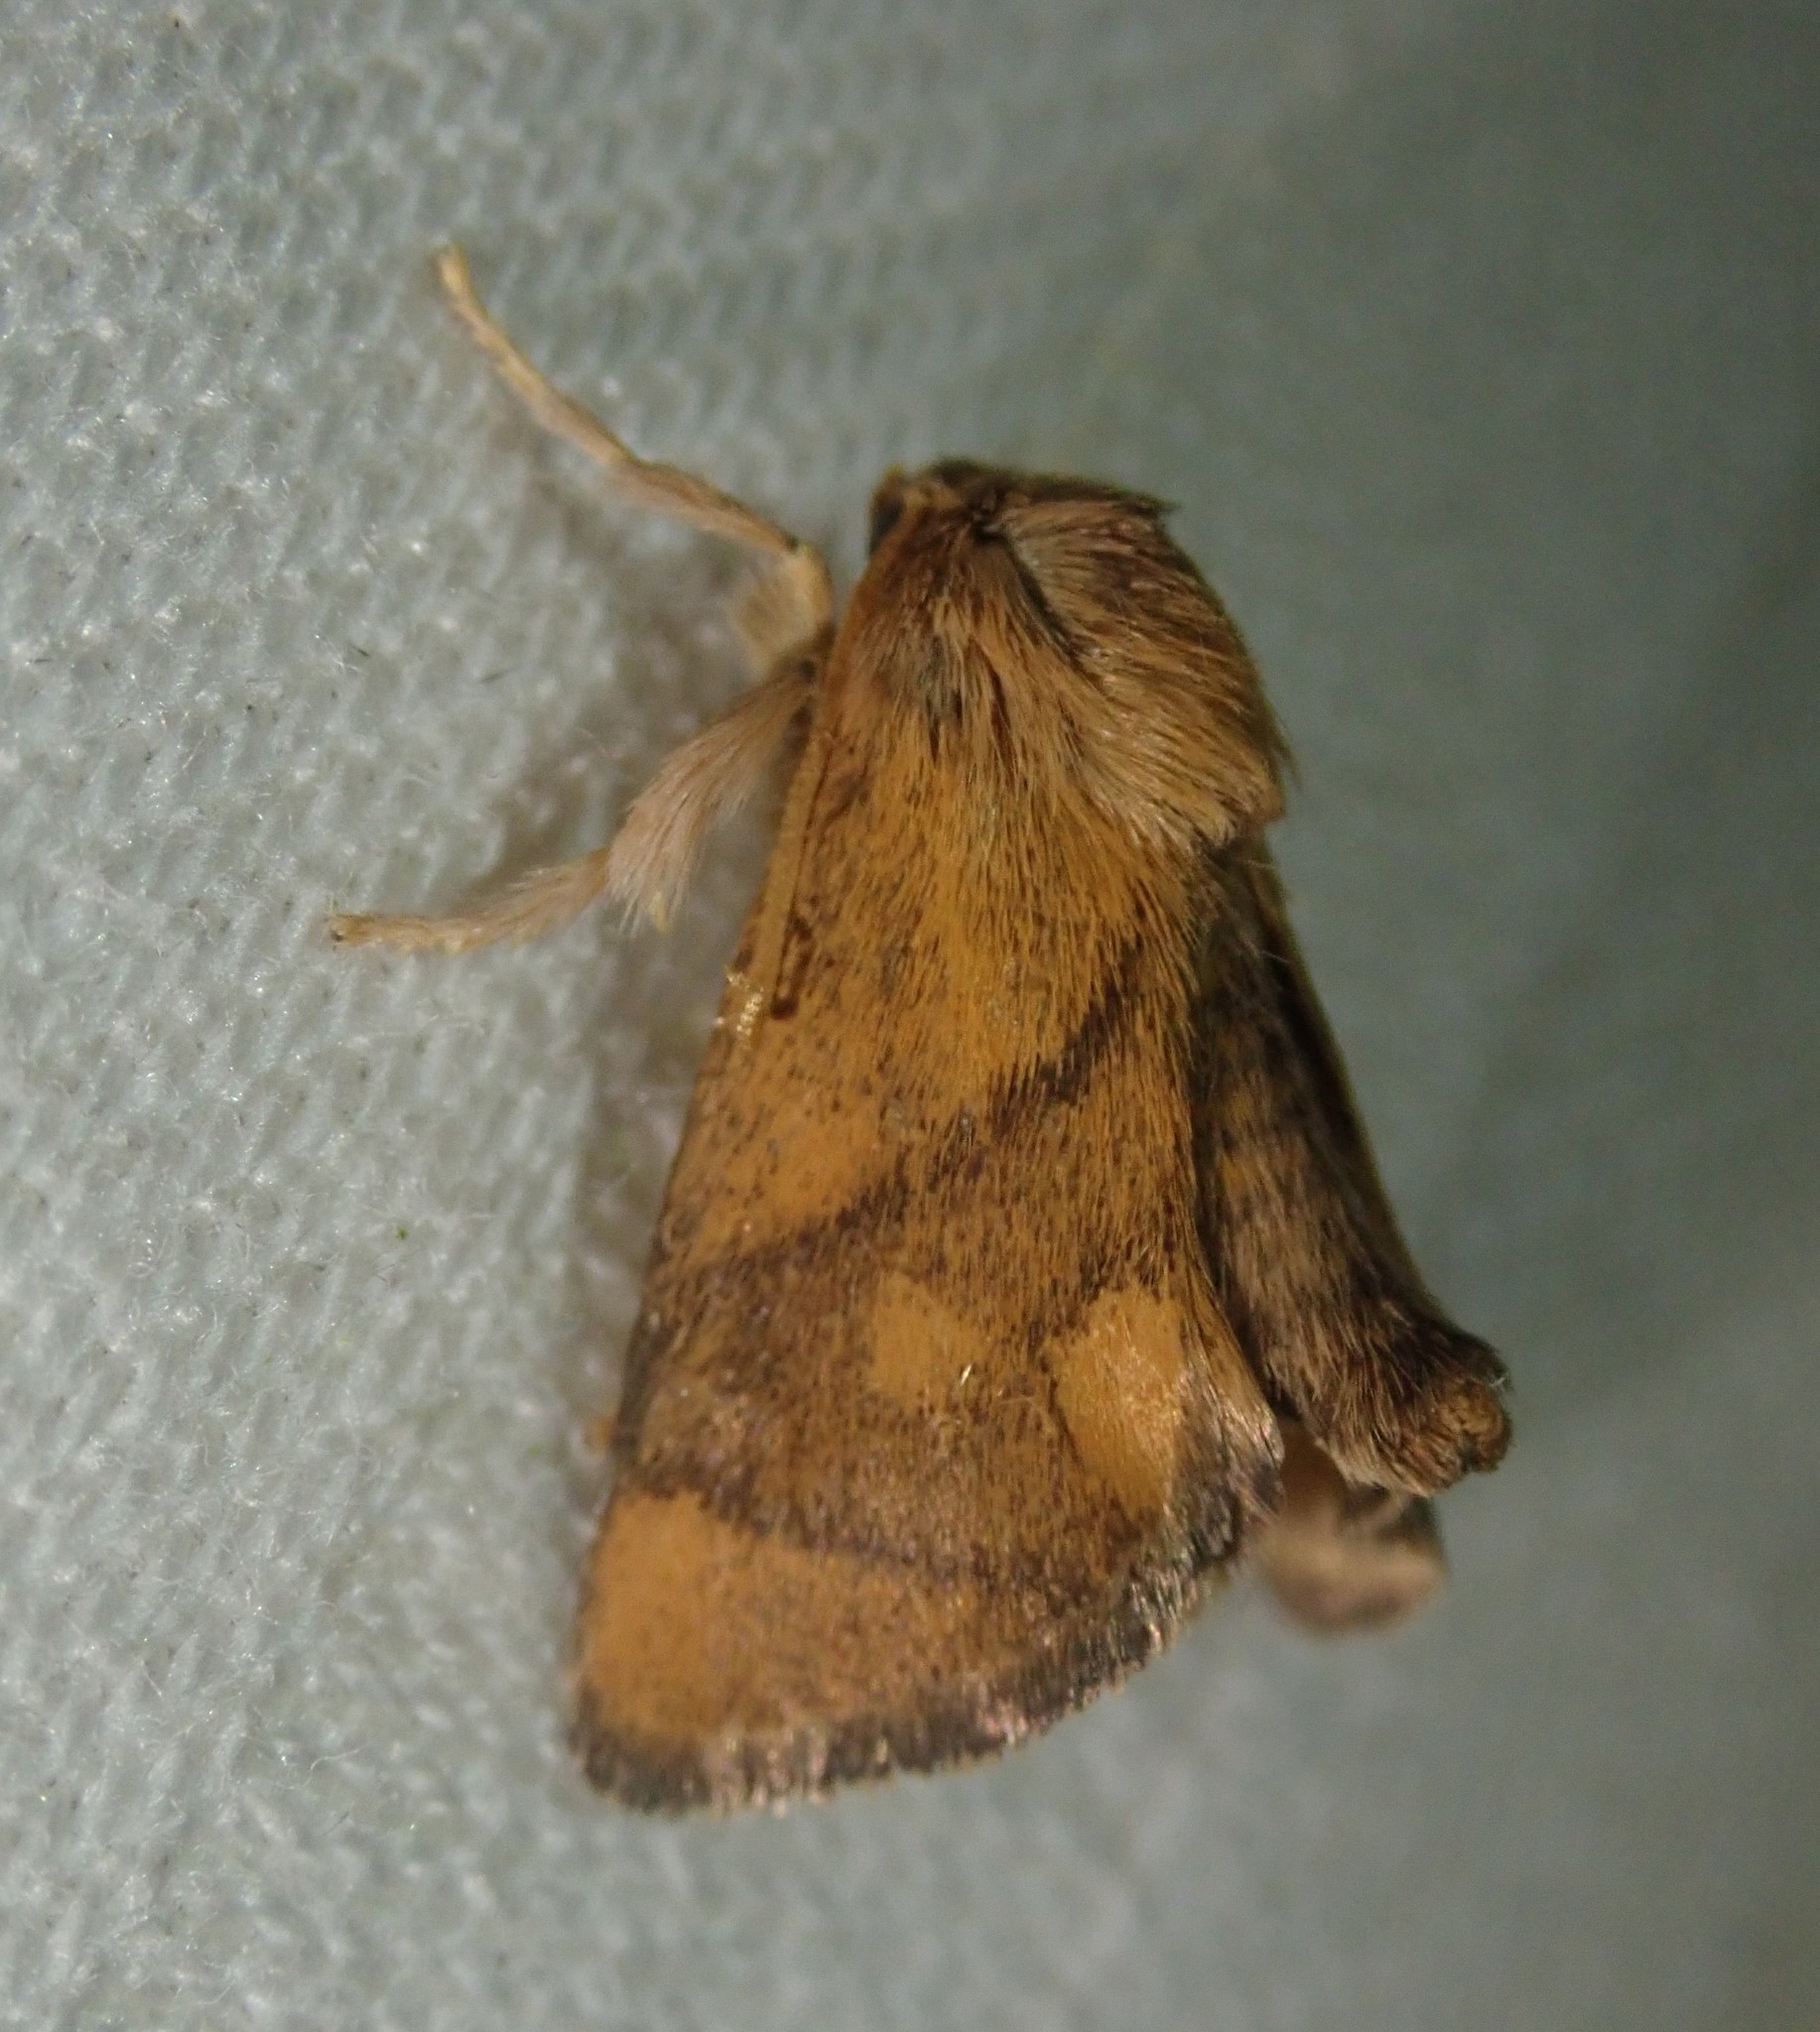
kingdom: Animalia
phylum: Arthropoda
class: Insecta
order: Lepidoptera
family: Limacodidae
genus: Apoda
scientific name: Apoda limacodes
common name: Festoon
